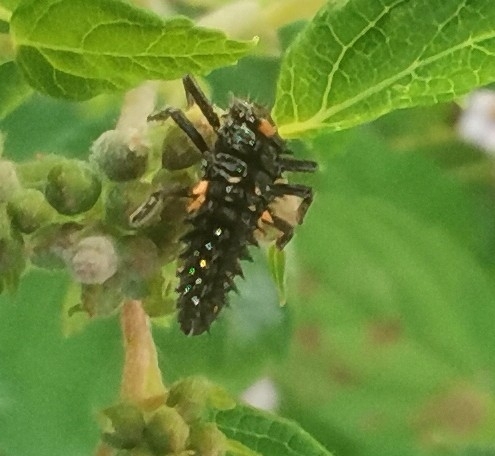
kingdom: Animalia
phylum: Arthropoda
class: Insecta
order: Coleoptera
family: Coccinellidae
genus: Anatis
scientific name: Anatis ocellata
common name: Eyed ladybird
